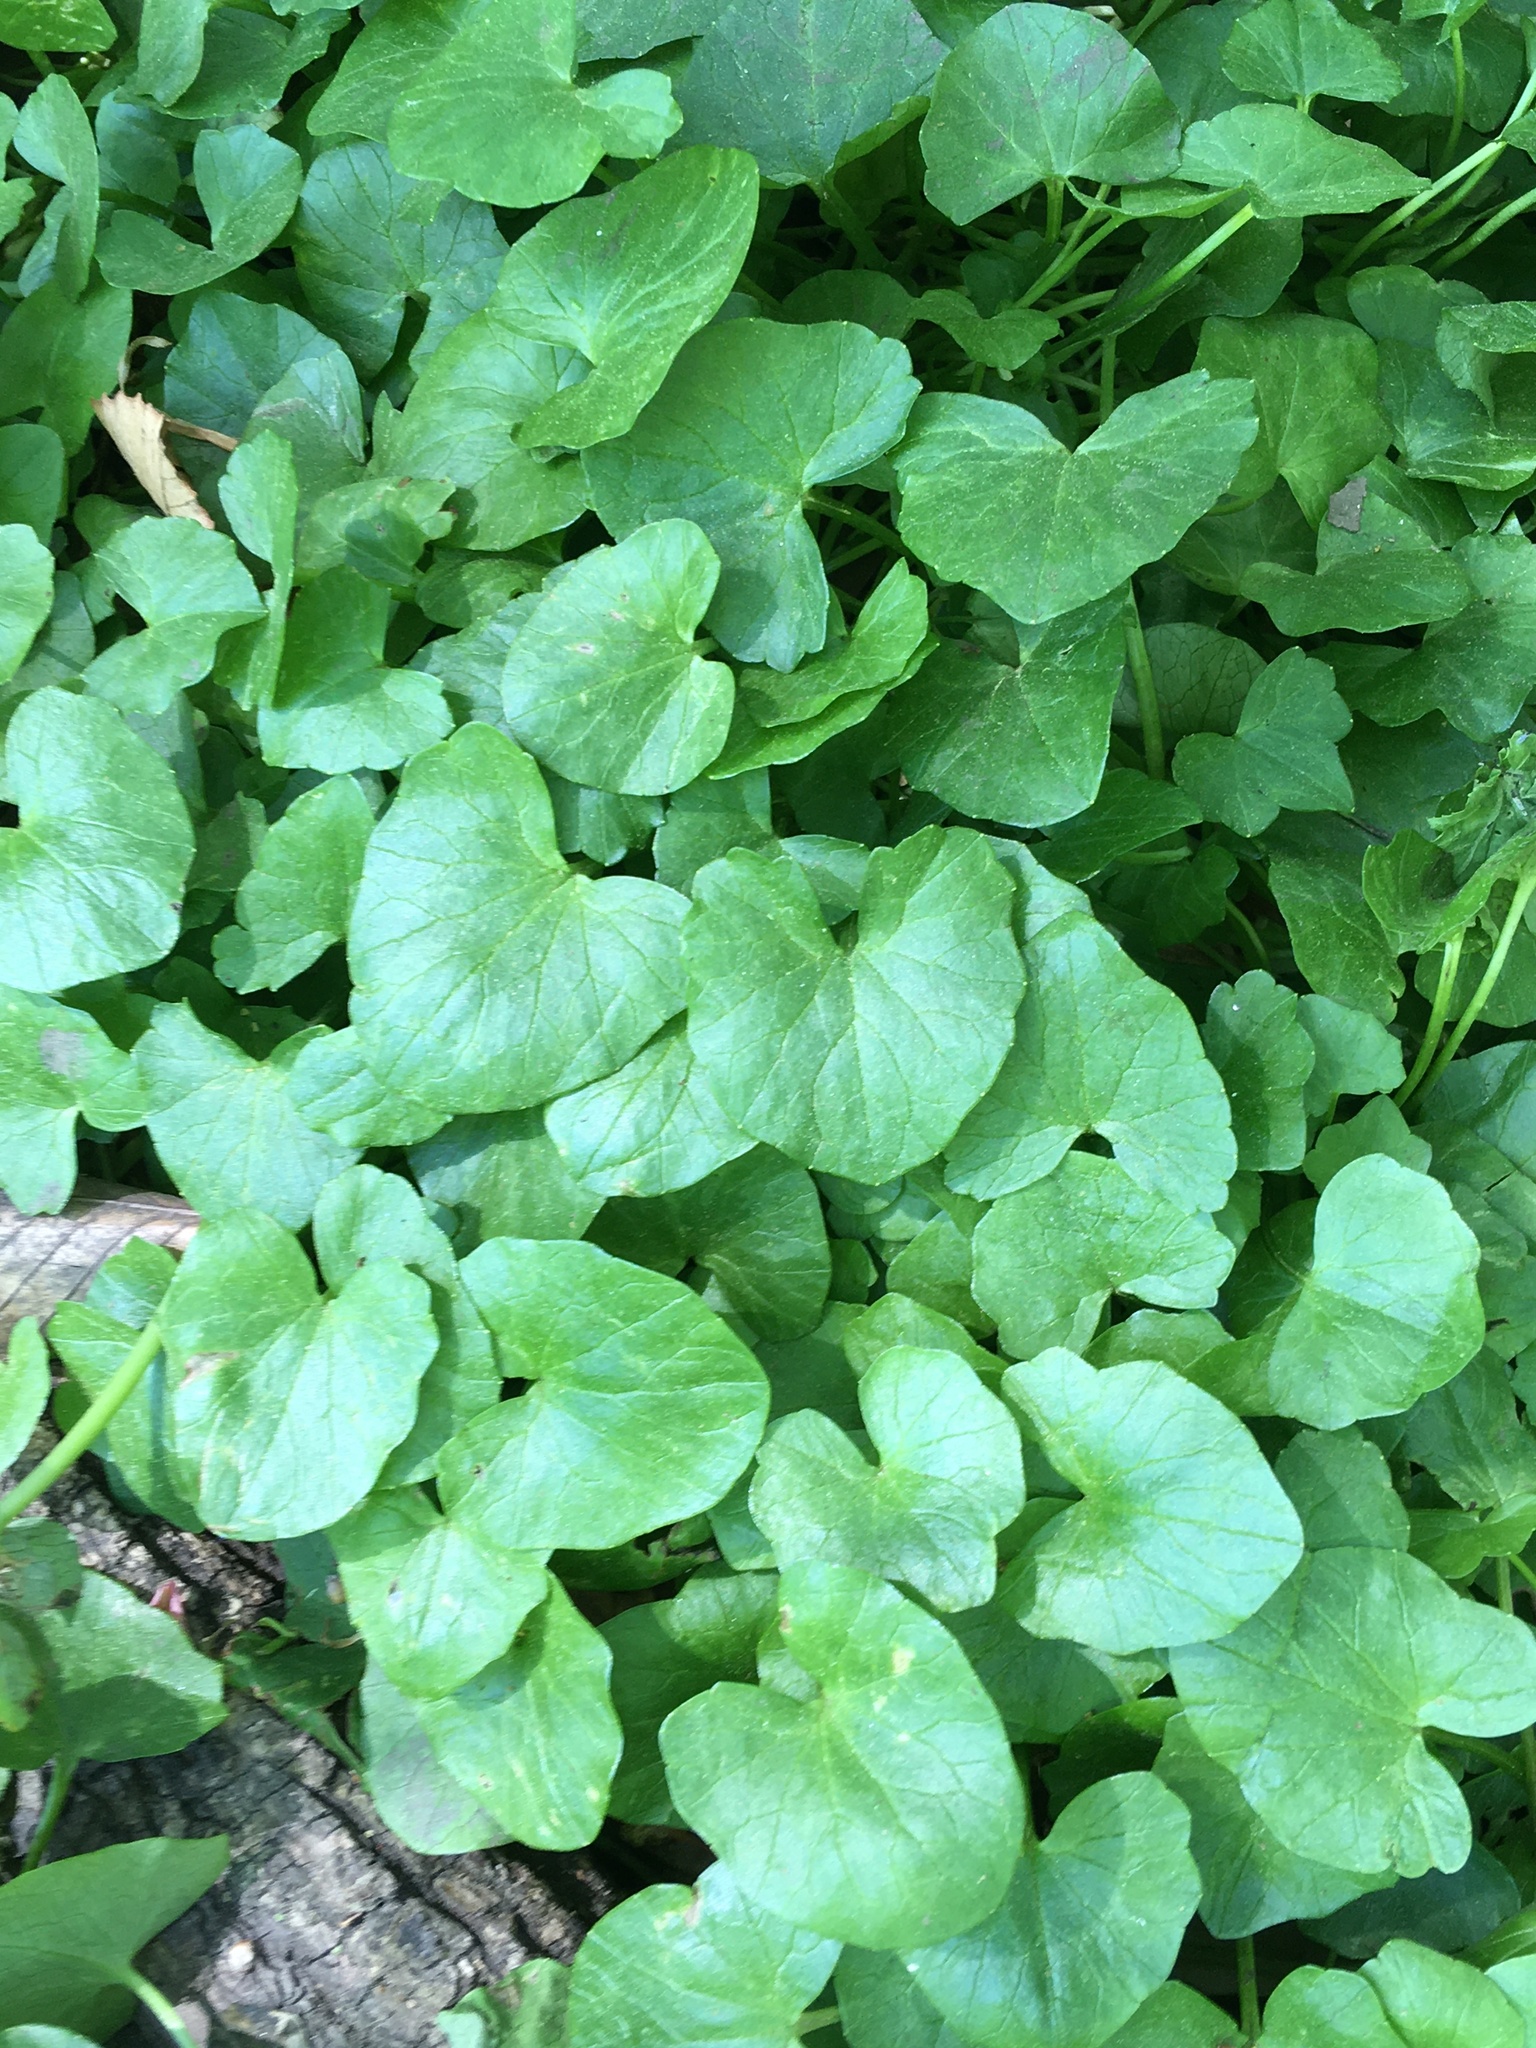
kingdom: Plantae
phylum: Tracheophyta
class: Magnoliopsida
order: Ranunculales
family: Ranunculaceae
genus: Ficaria
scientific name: Ficaria verna
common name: Lesser celandine
